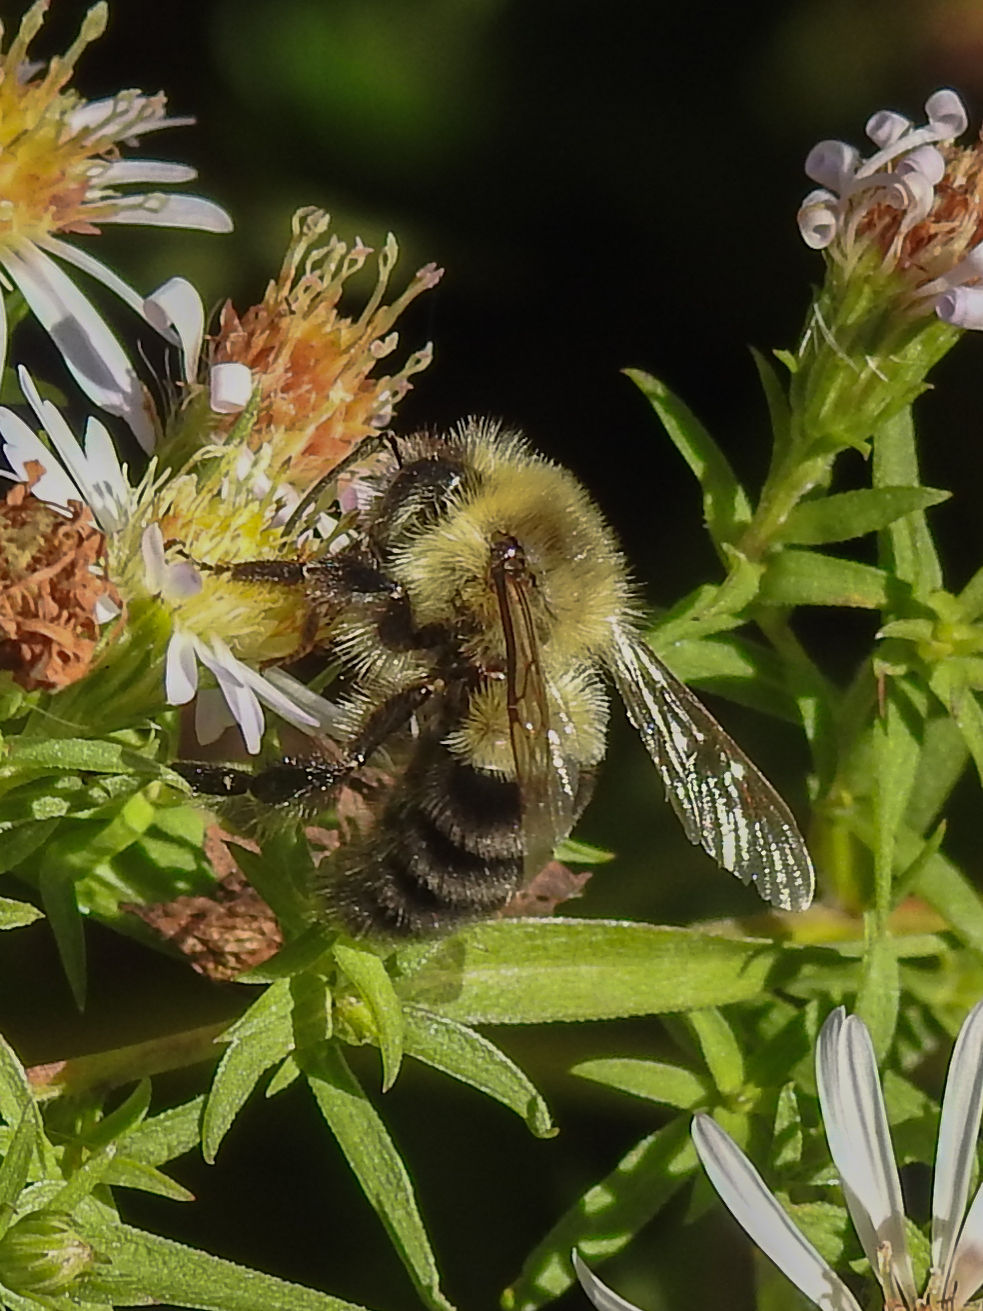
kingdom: Animalia
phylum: Arthropoda
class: Insecta
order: Hymenoptera
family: Apidae
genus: Bombus
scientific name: Bombus impatiens
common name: Common eastern bumble bee
